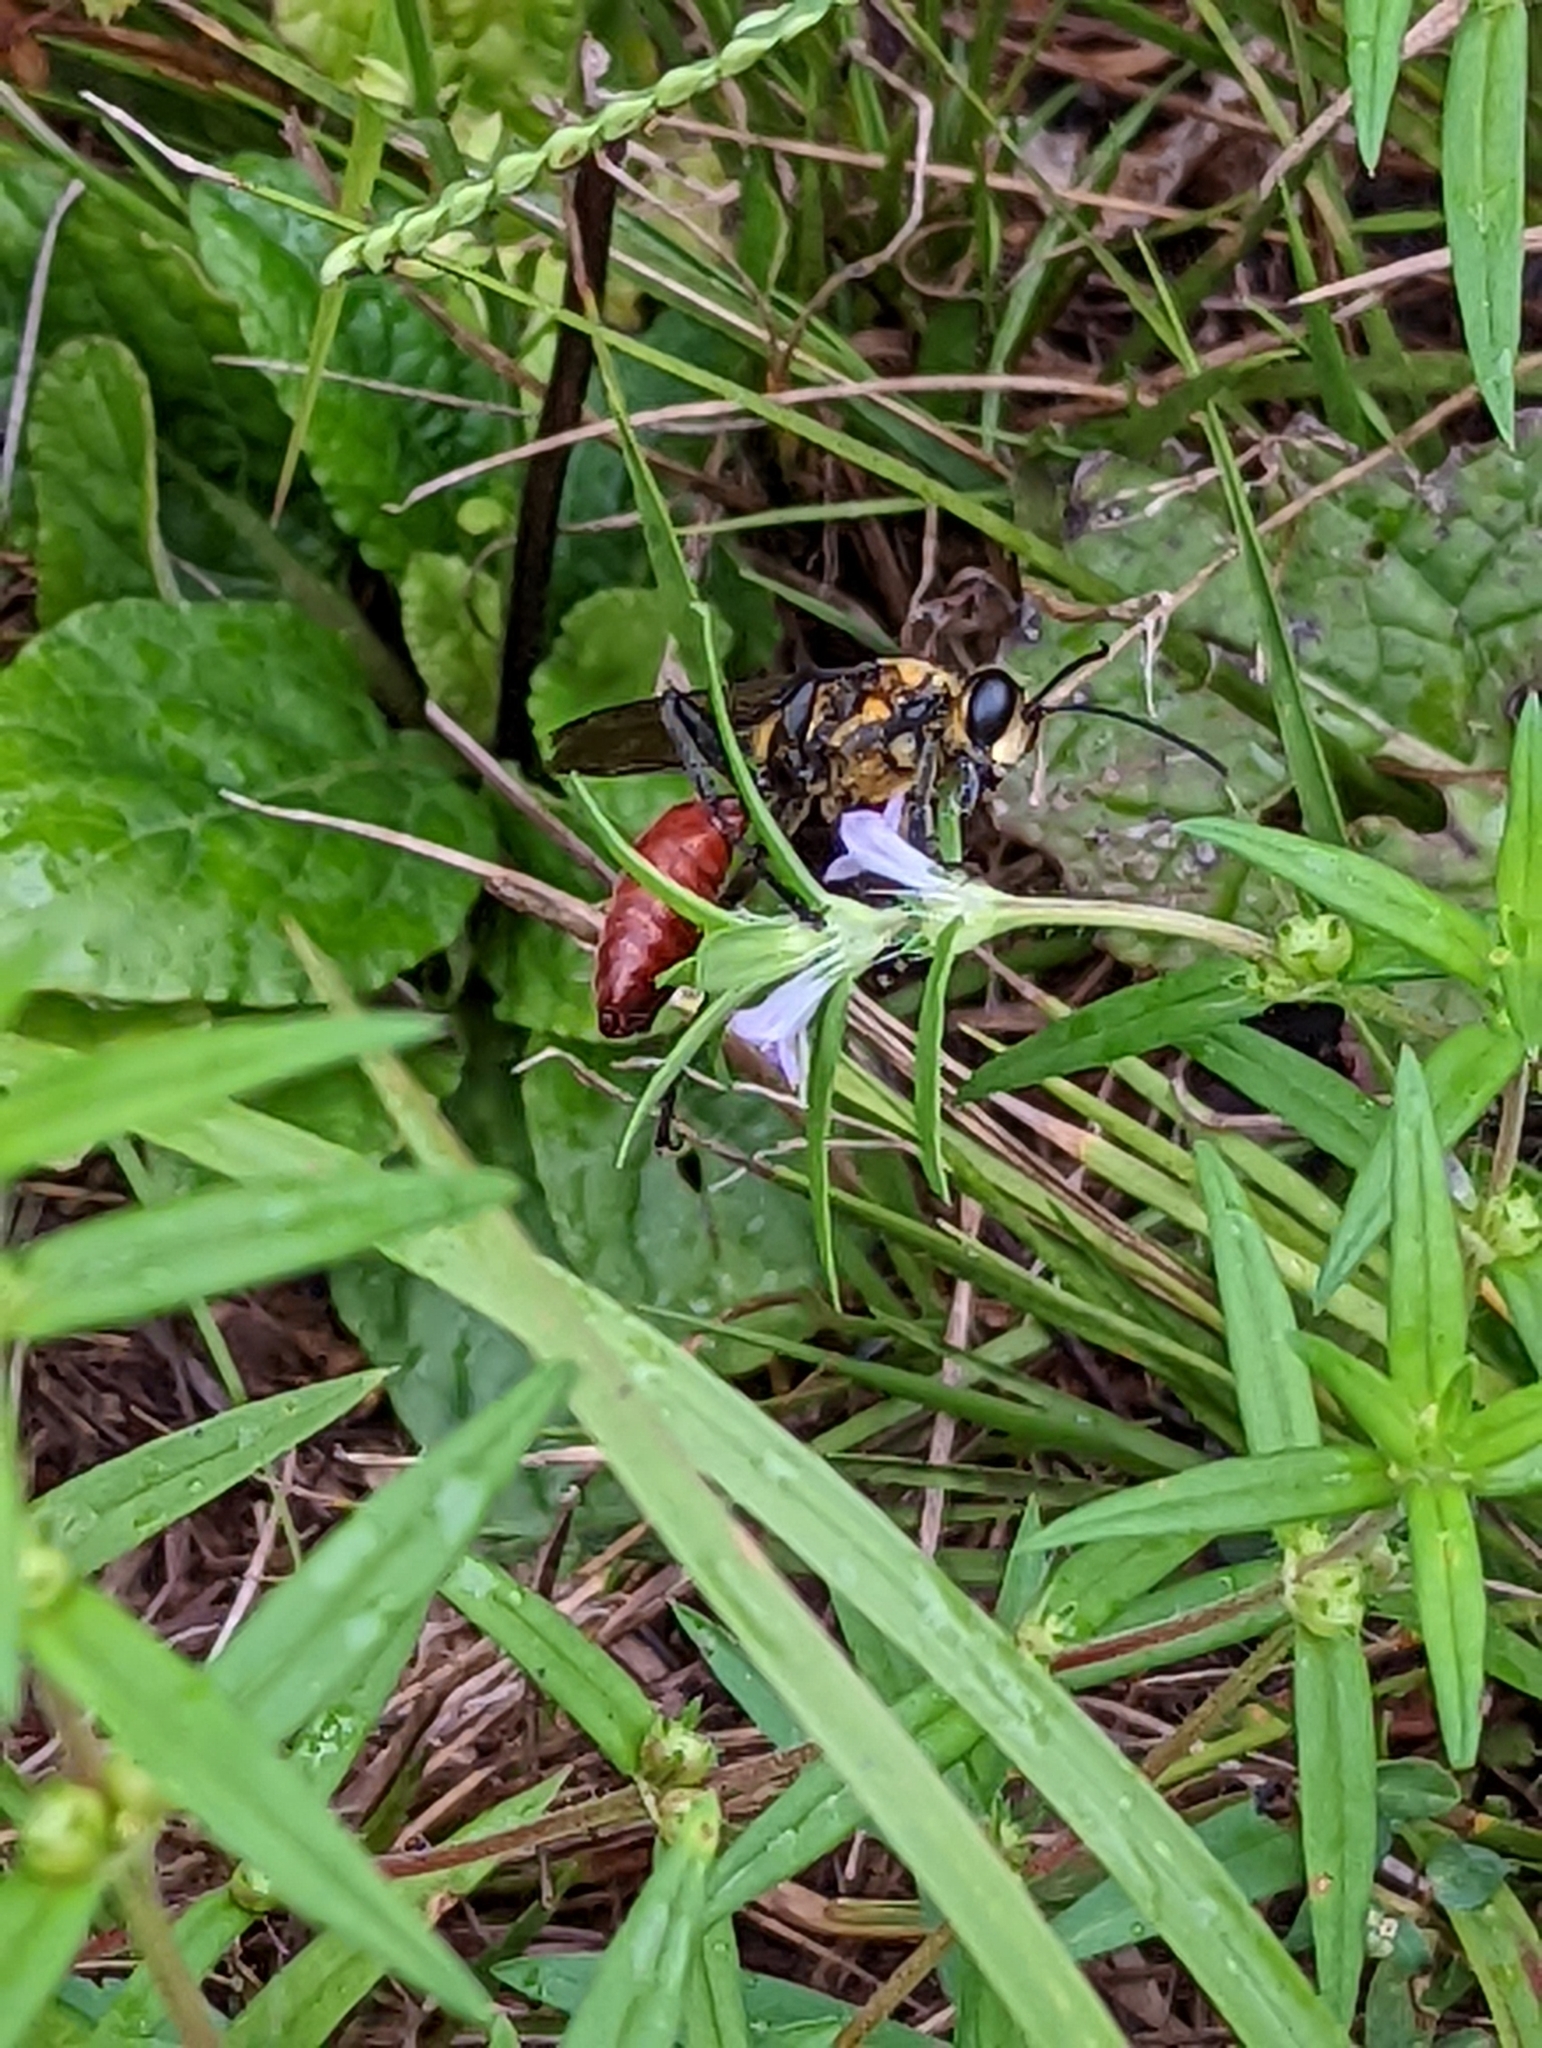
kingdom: Animalia
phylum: Arthropoda
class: Insecta
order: Hymenoptera
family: Sphecidae
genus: Sphex
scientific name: Sphex habenus
